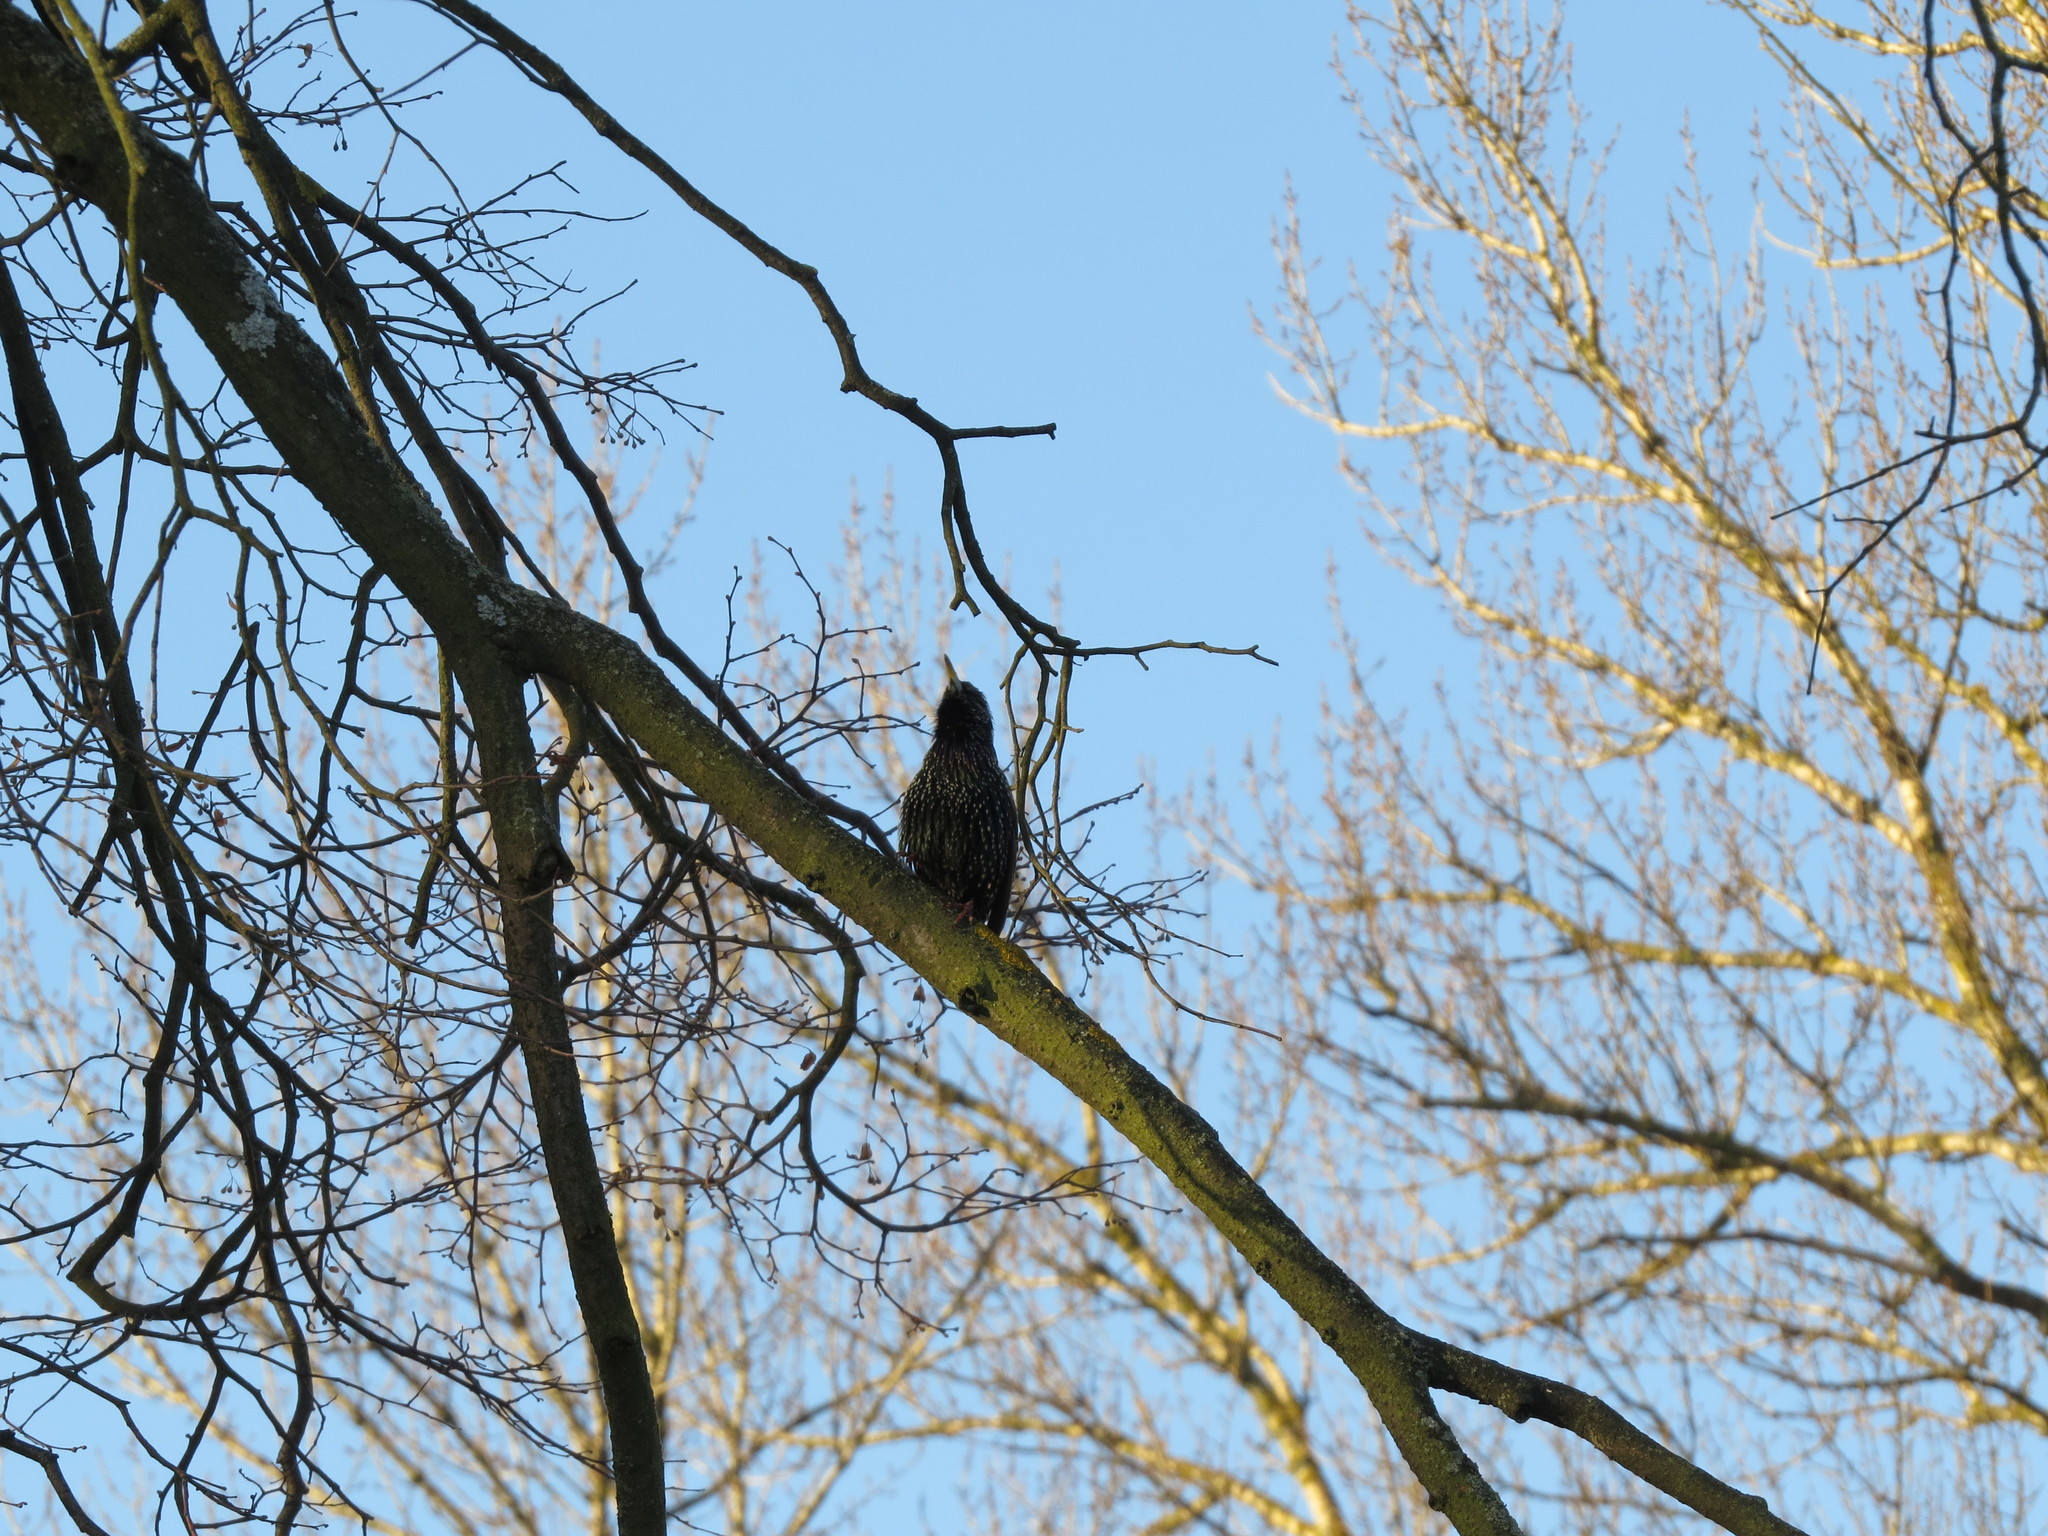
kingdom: Animalia
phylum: Chordata
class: Aves
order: Passeriformes
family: Sturnidae
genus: Sturnus
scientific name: Sturnus vulgaris
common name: Common starling
